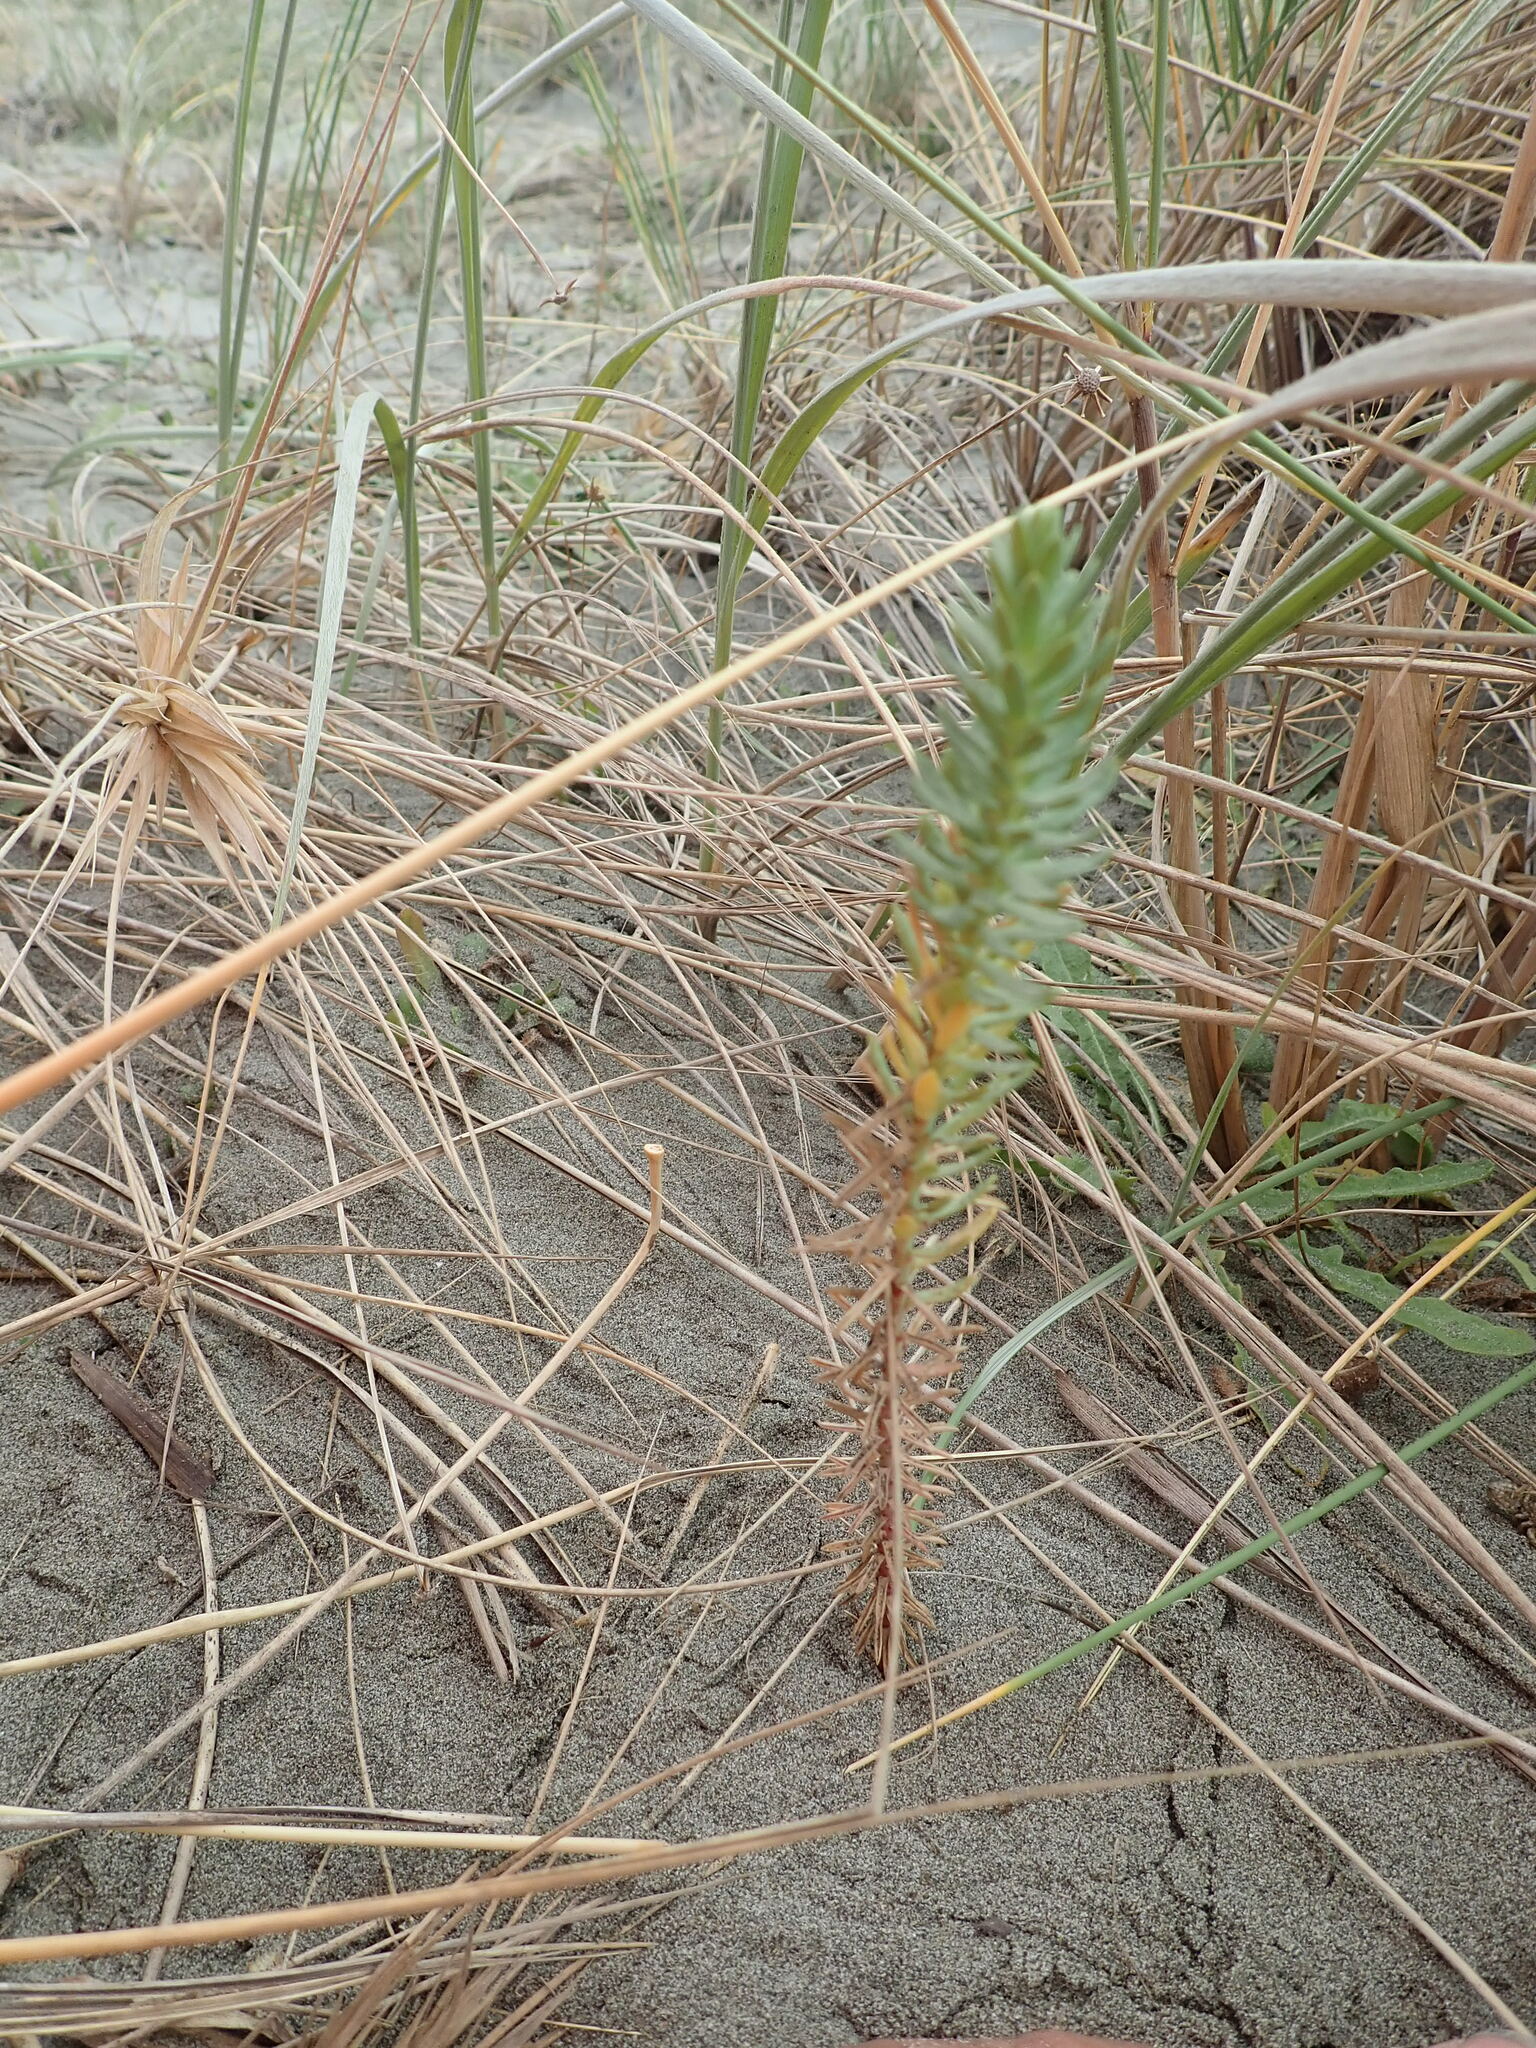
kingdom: Plantae
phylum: Tracheophyta
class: Magnoliopsida
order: Malpighiales
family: Euphorbiaceae
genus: Euphorbia
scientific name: Euphorbia paralias
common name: Sea spurge
